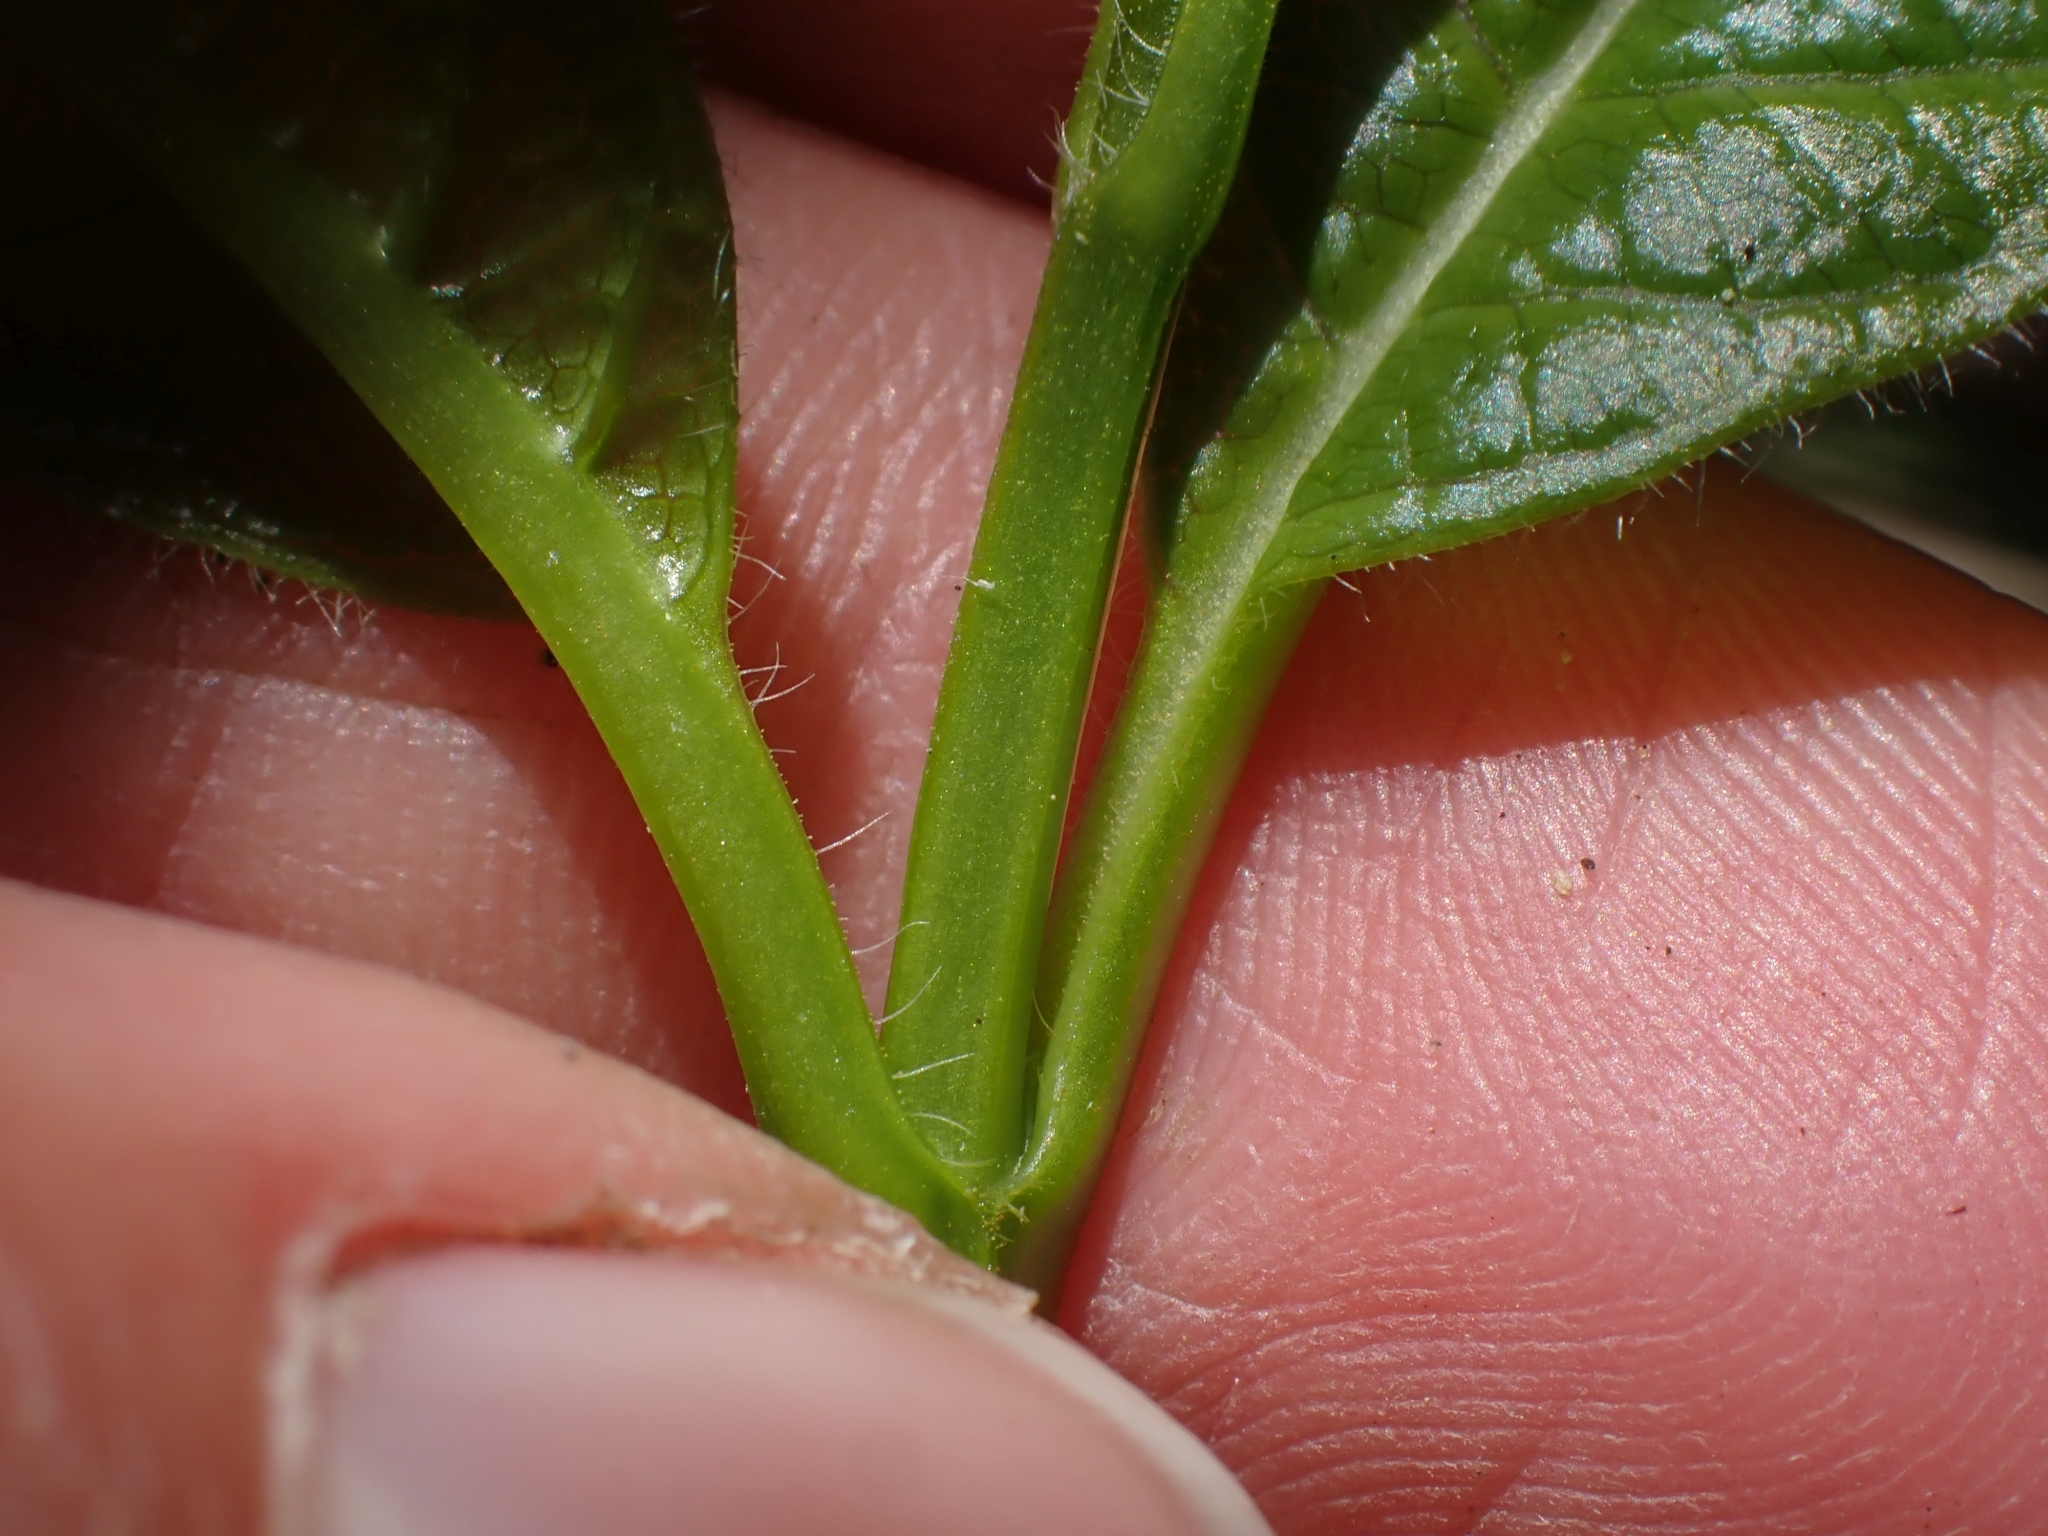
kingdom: Plantae
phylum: Tracheophyta
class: Magnoliopsida
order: Dipsacales
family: Caprifoliaceae
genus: Lonicera
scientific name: Lonicera involucrata
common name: Californian honeysuckle
